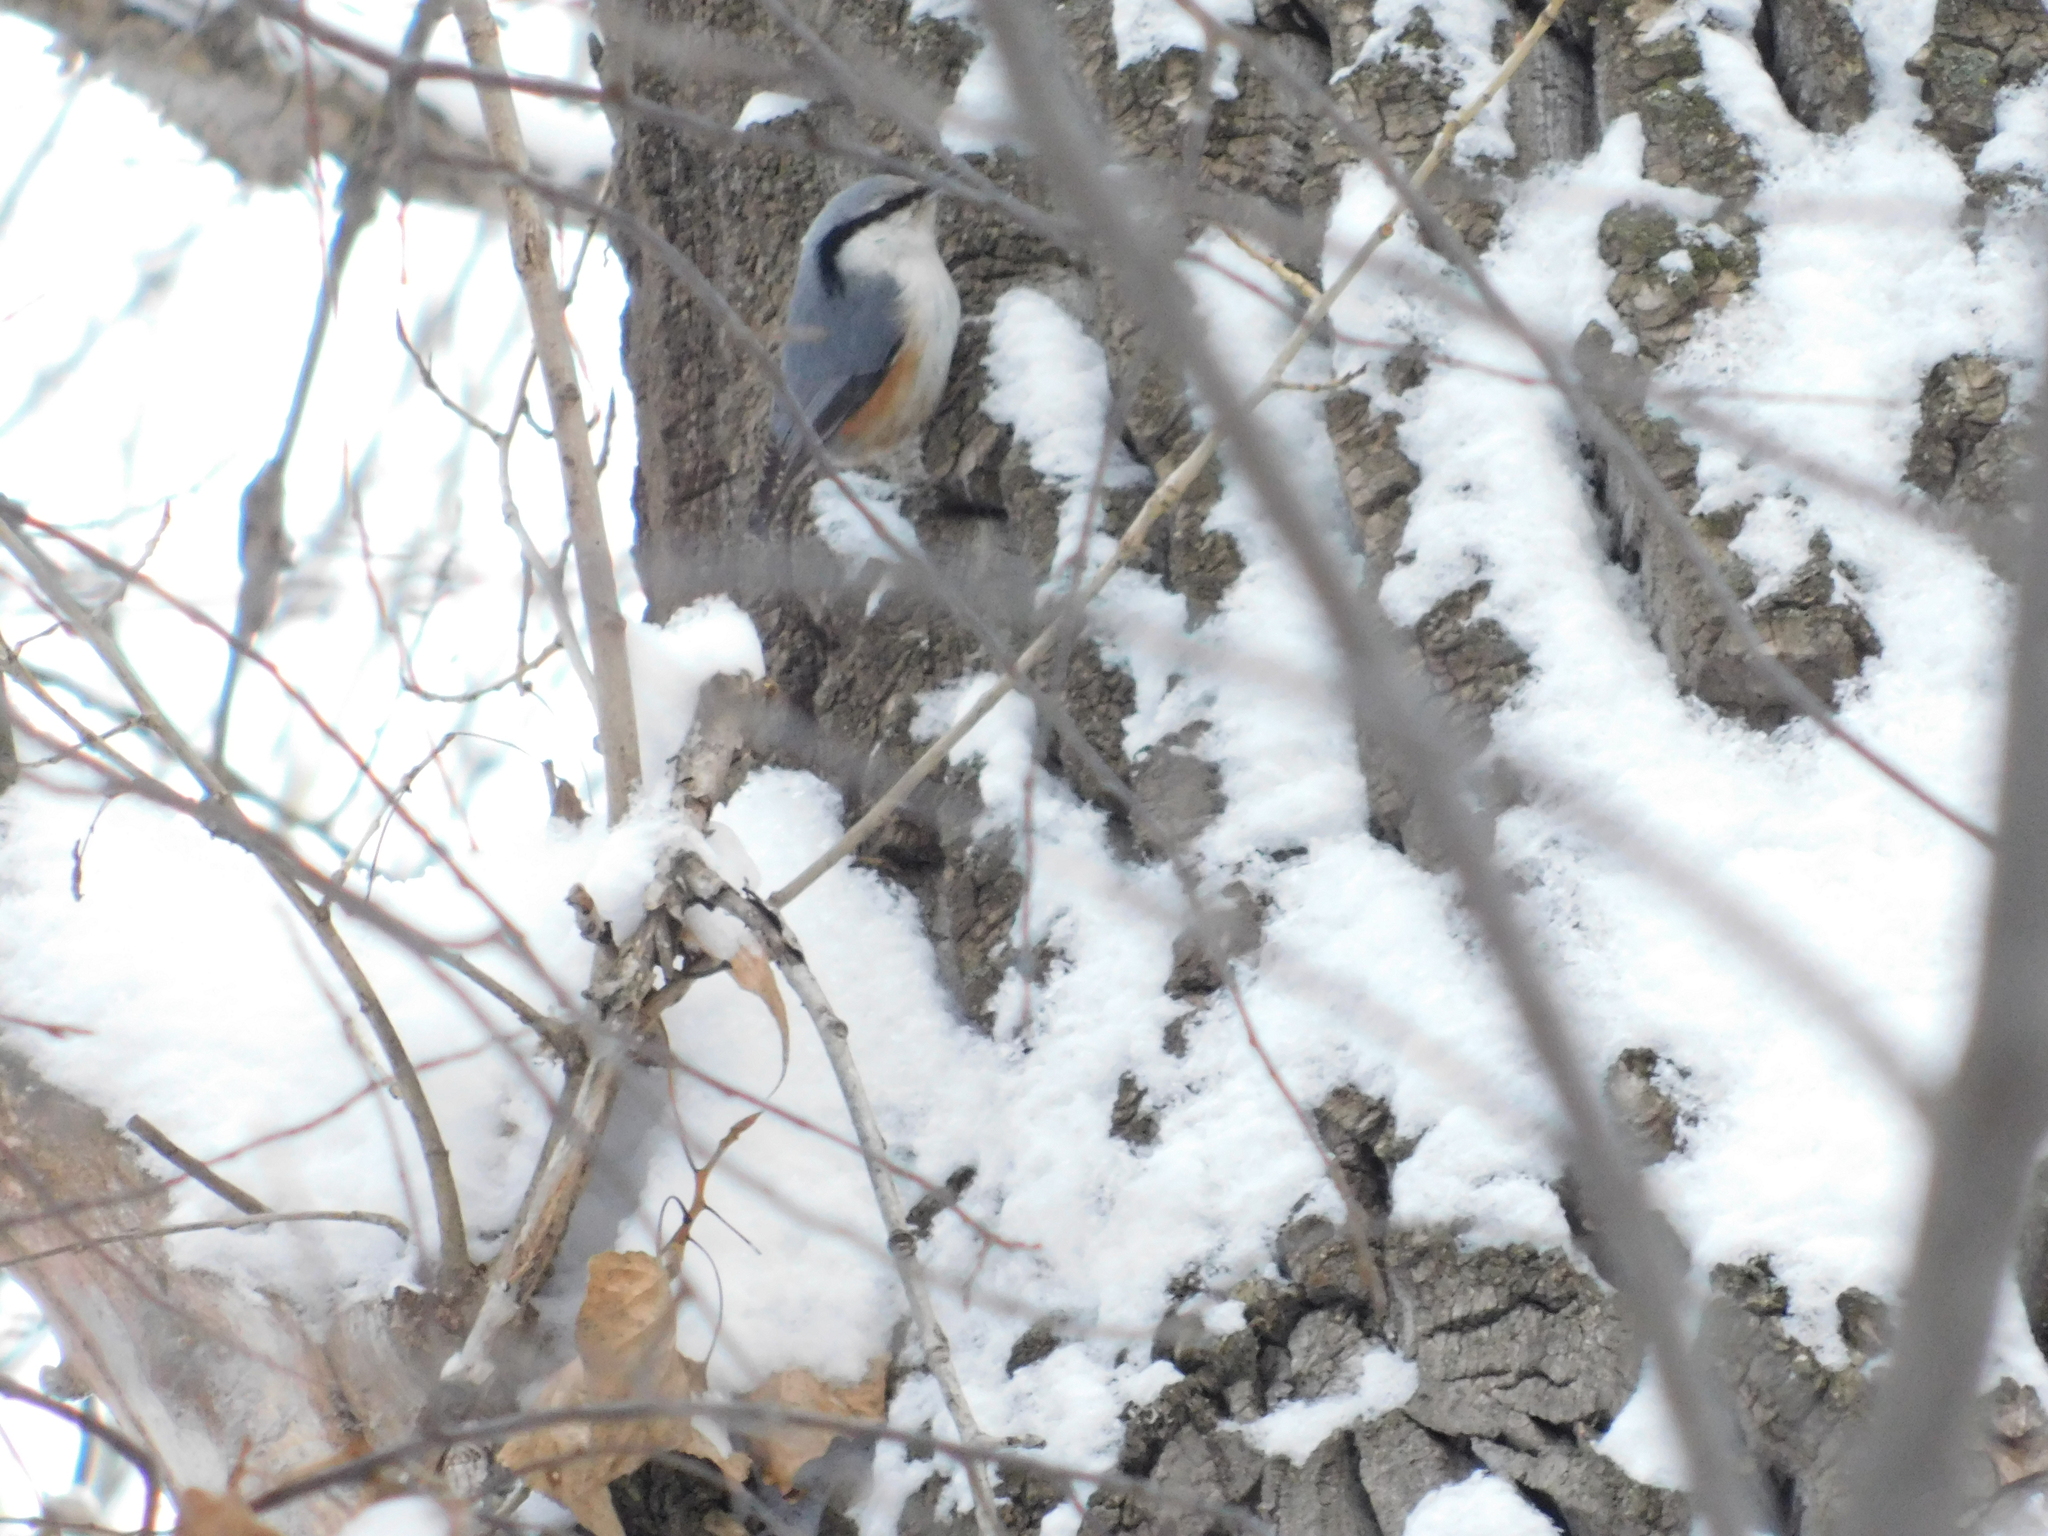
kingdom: Animalia
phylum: Chordata
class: Aves
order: Passeriformes
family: Sittidae
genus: Sitta
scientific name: Sitta europaea
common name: Eurasian nuthatch
